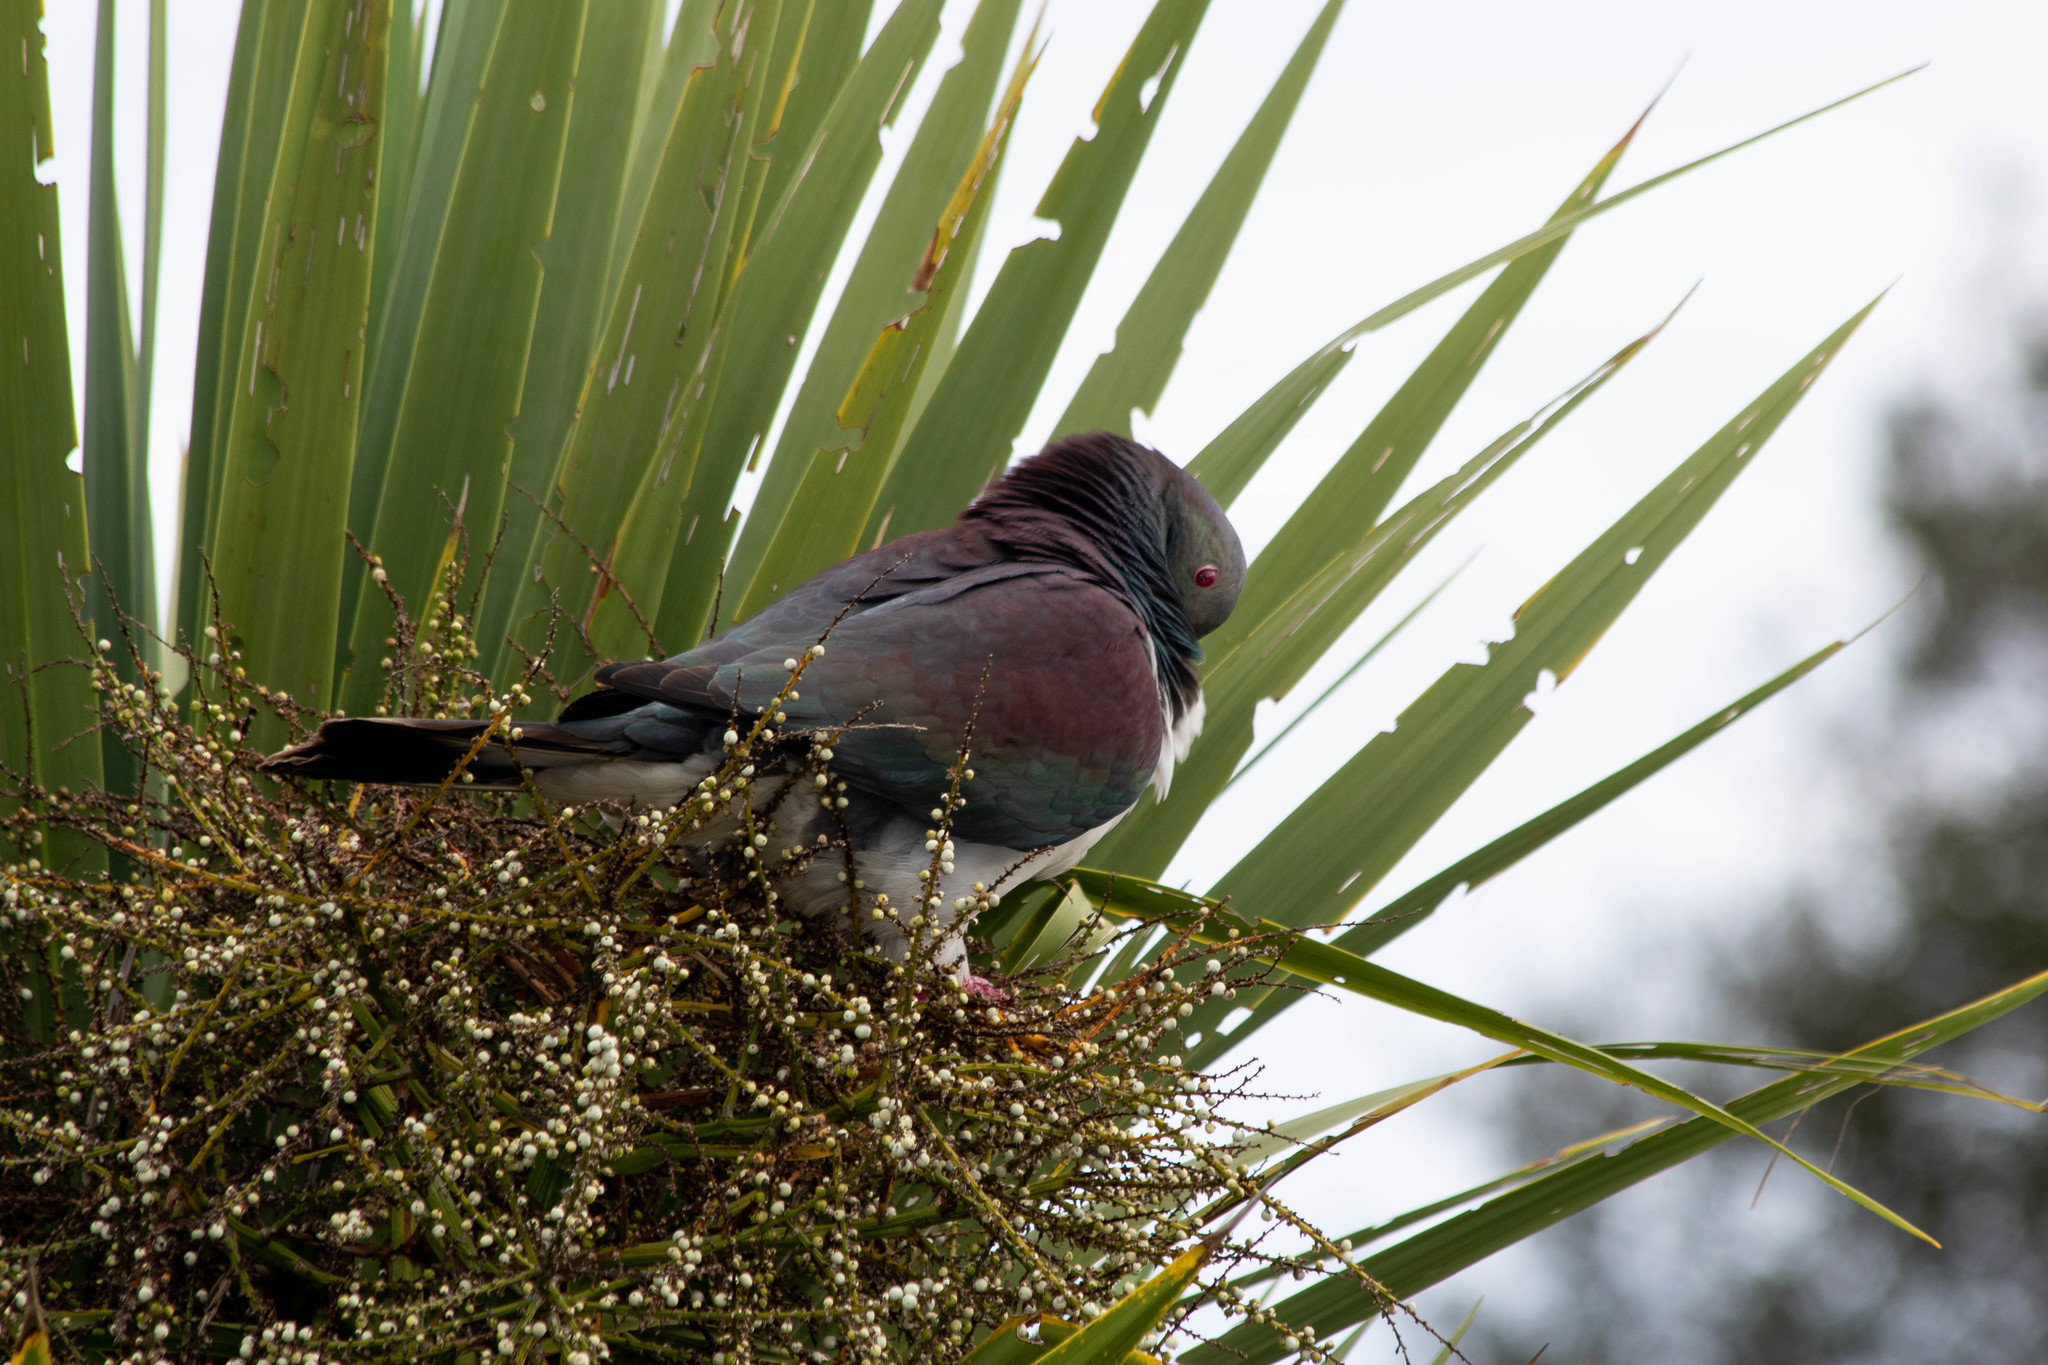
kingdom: Animalia
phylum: Chordata
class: Aves
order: Columbiformes
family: Columbidae
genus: Hemiphaga
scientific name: Hemiphaga novaeseelandiae
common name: New zealand pigeon
